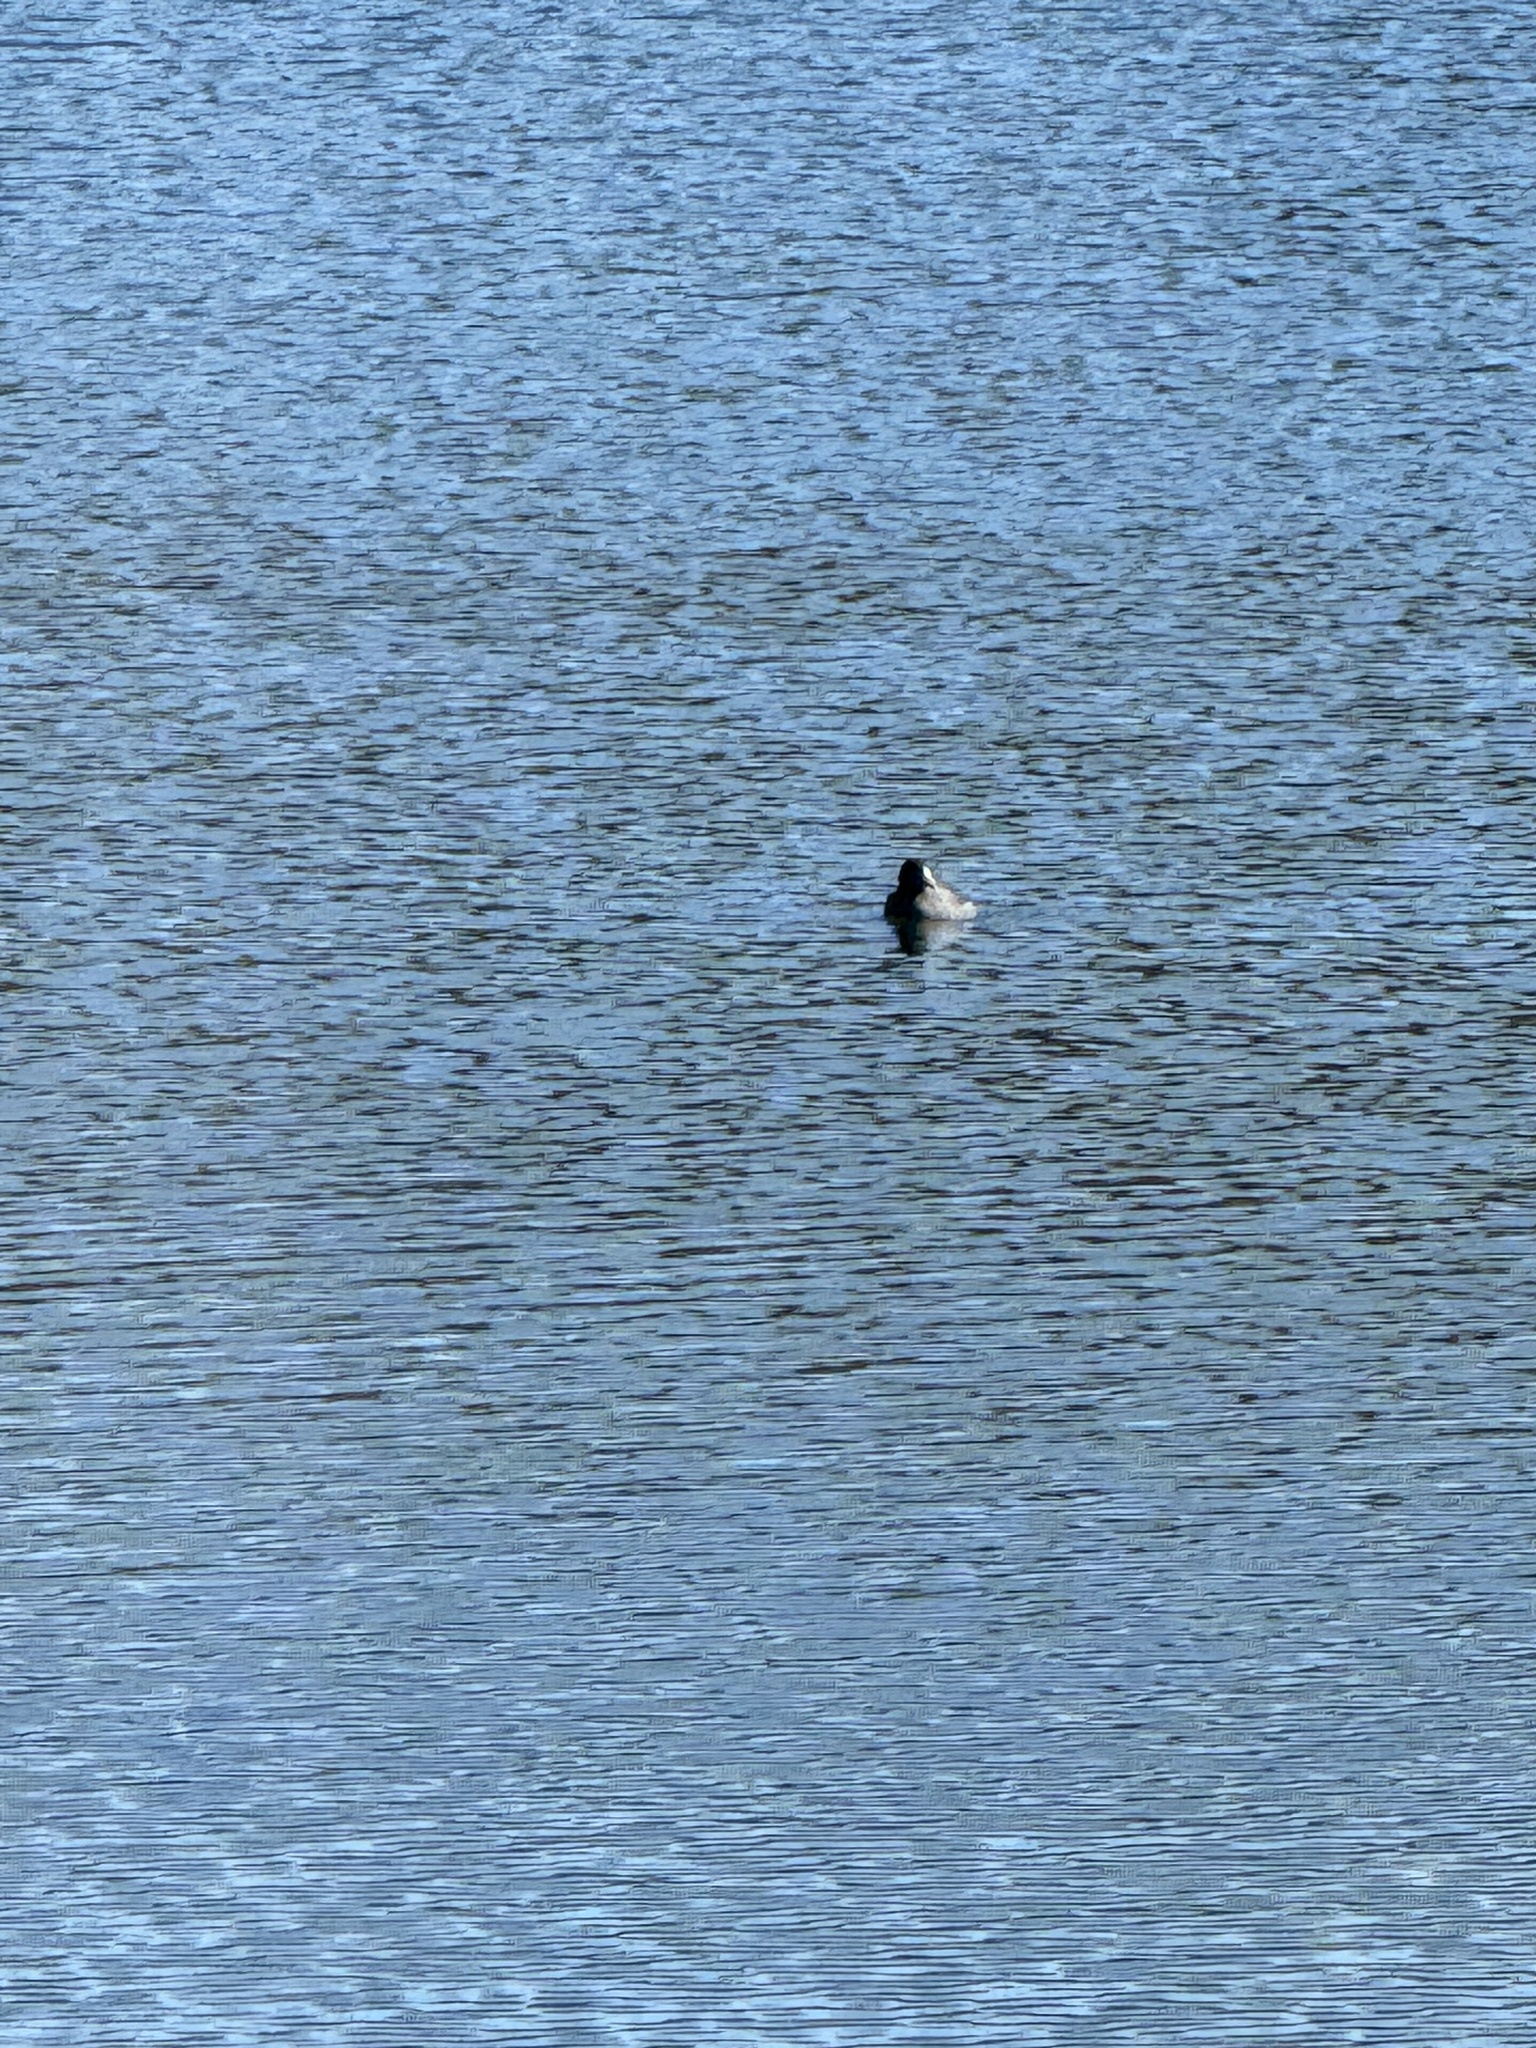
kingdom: Animalia
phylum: Chordata
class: Aves
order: Gruiformes
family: Rallidae
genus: Fulica
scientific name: Fulica americana
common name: American coot
